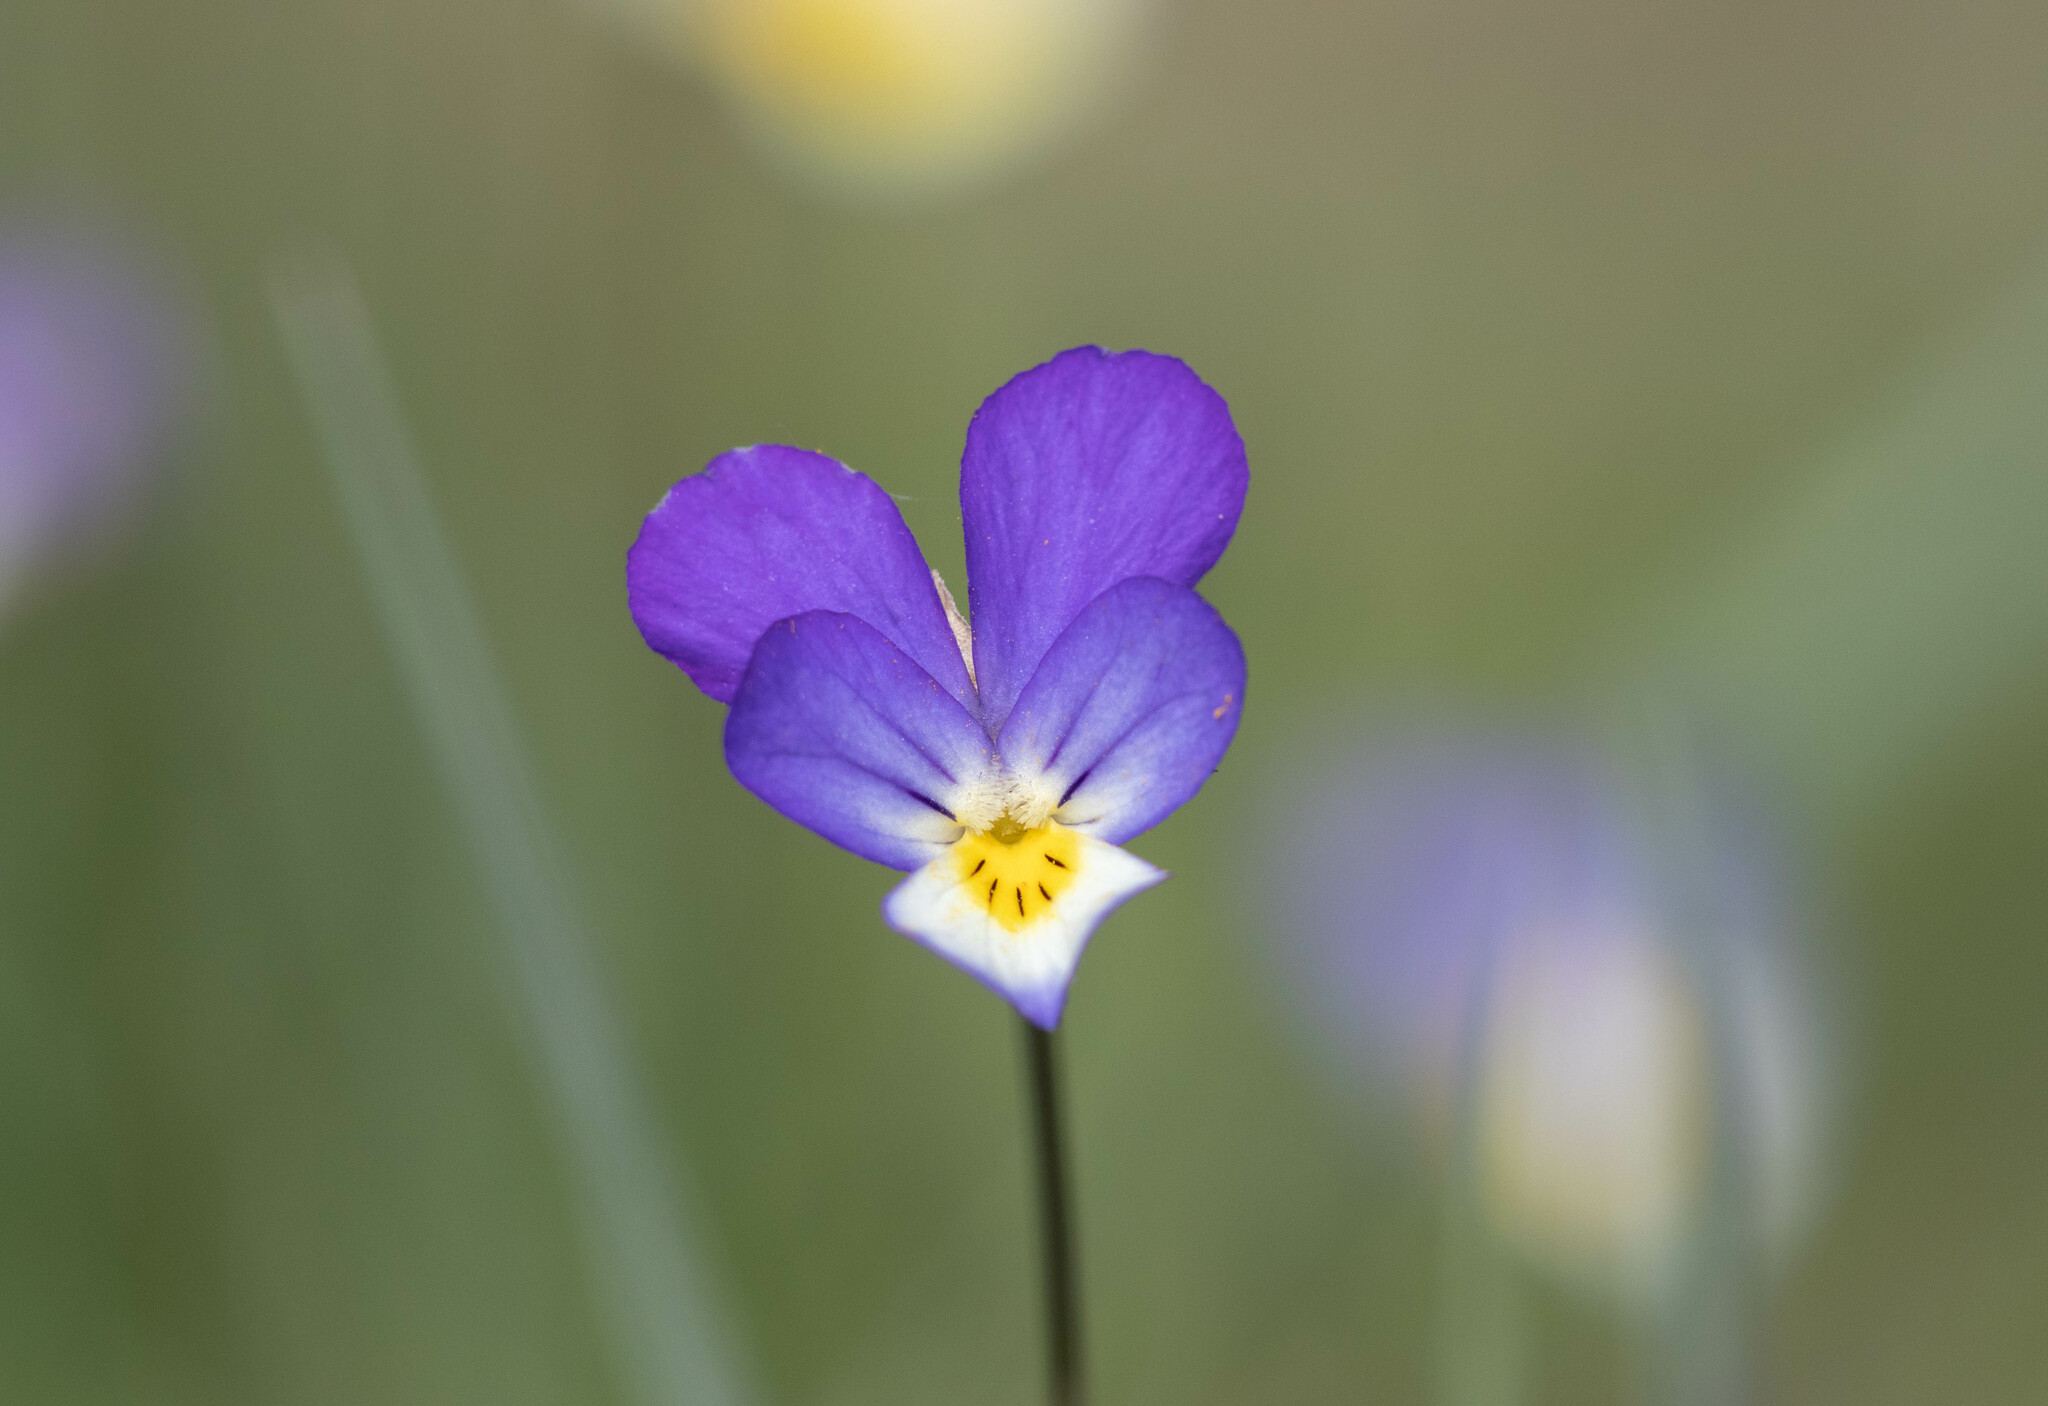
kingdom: Plantae
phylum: Tracheophyta
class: Magnoliopsida
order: Malpighiales
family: Violaceae
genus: Viola
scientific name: Viola tricolor
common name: Pansy
